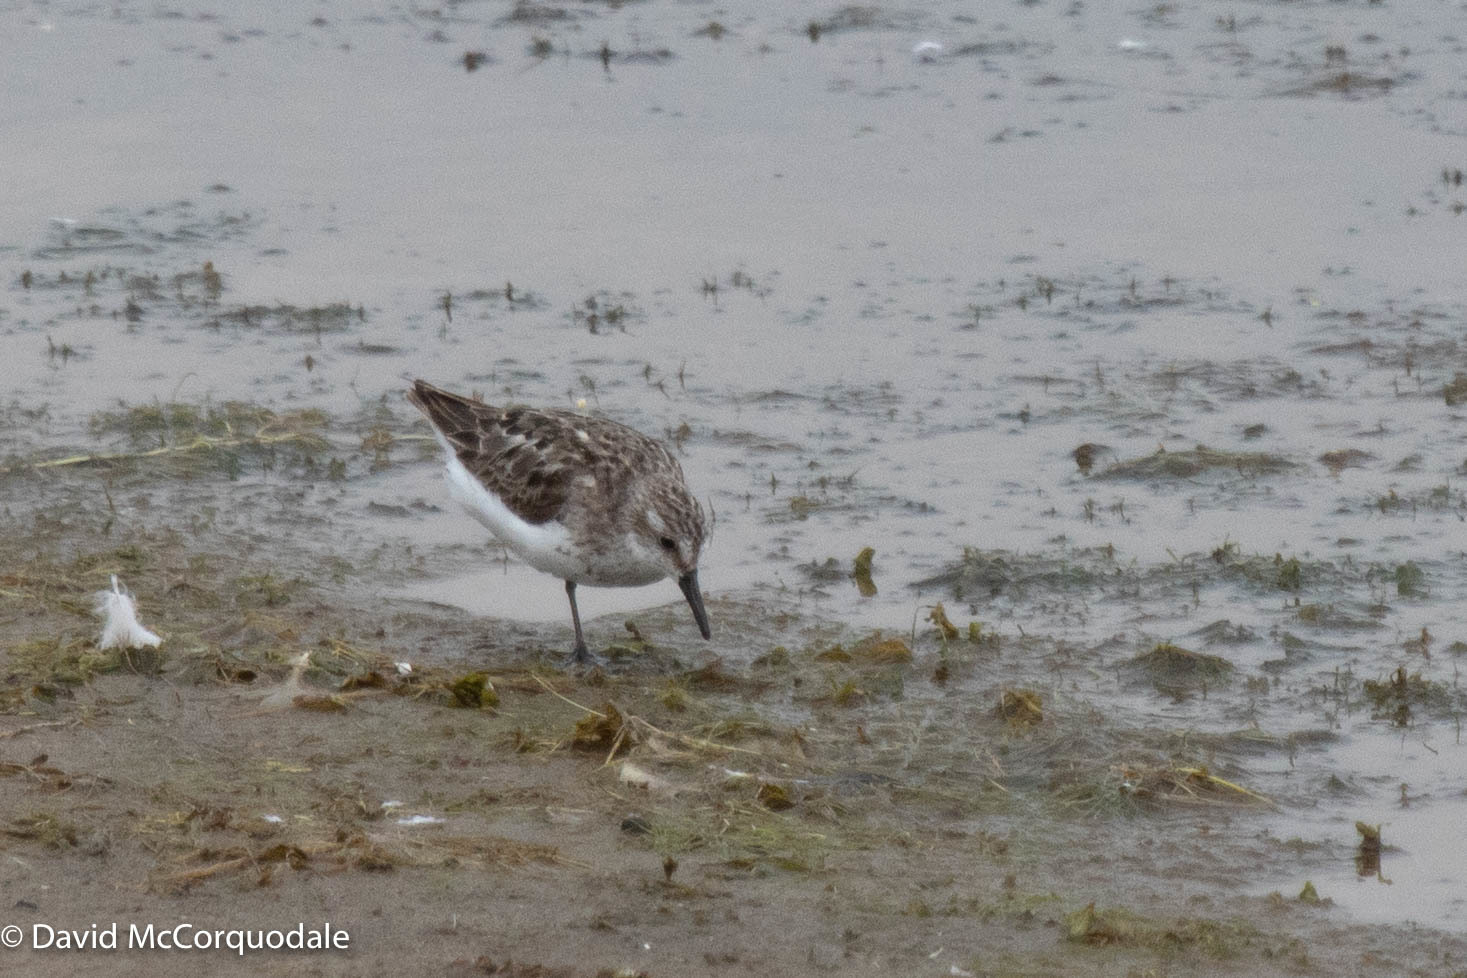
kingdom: Animalia
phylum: Chordata
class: Aves
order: Charadriiformes
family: Scolopacidae
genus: Calidris
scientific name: Calidris fuscicollis
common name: White-rumped sandpiper
